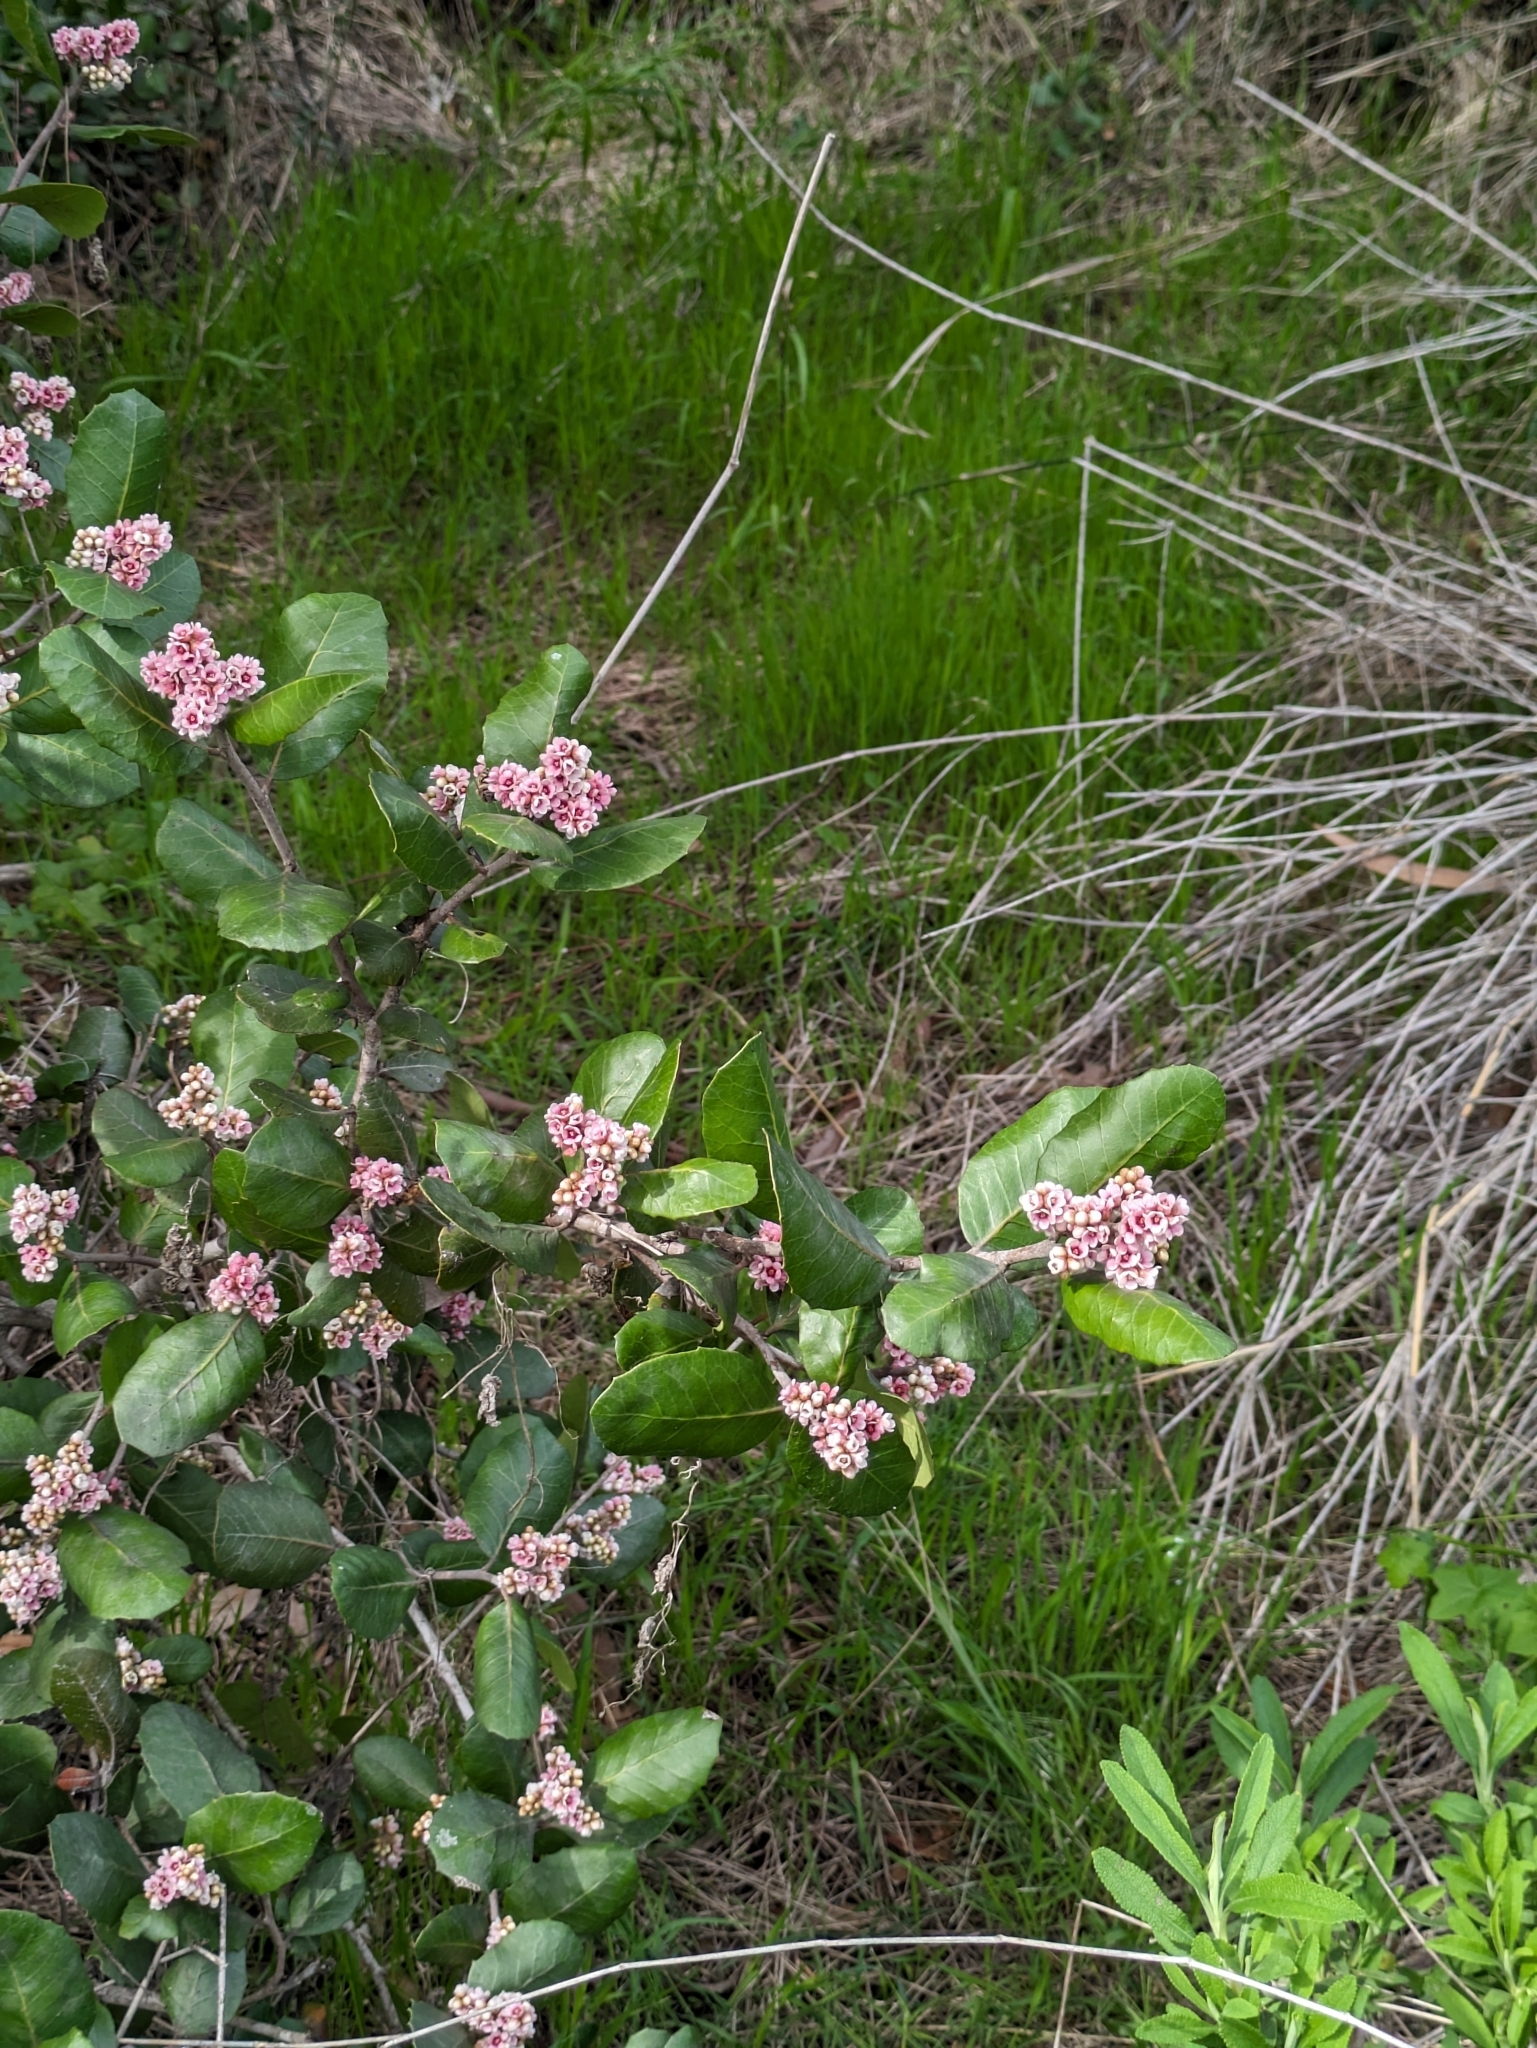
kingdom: Plantae
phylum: Tracheophyta
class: Magnoliopsida
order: Sapindales
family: Anacardiaceae
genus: Rhus
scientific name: Rhus integrifolia
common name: Lemonade sumac
